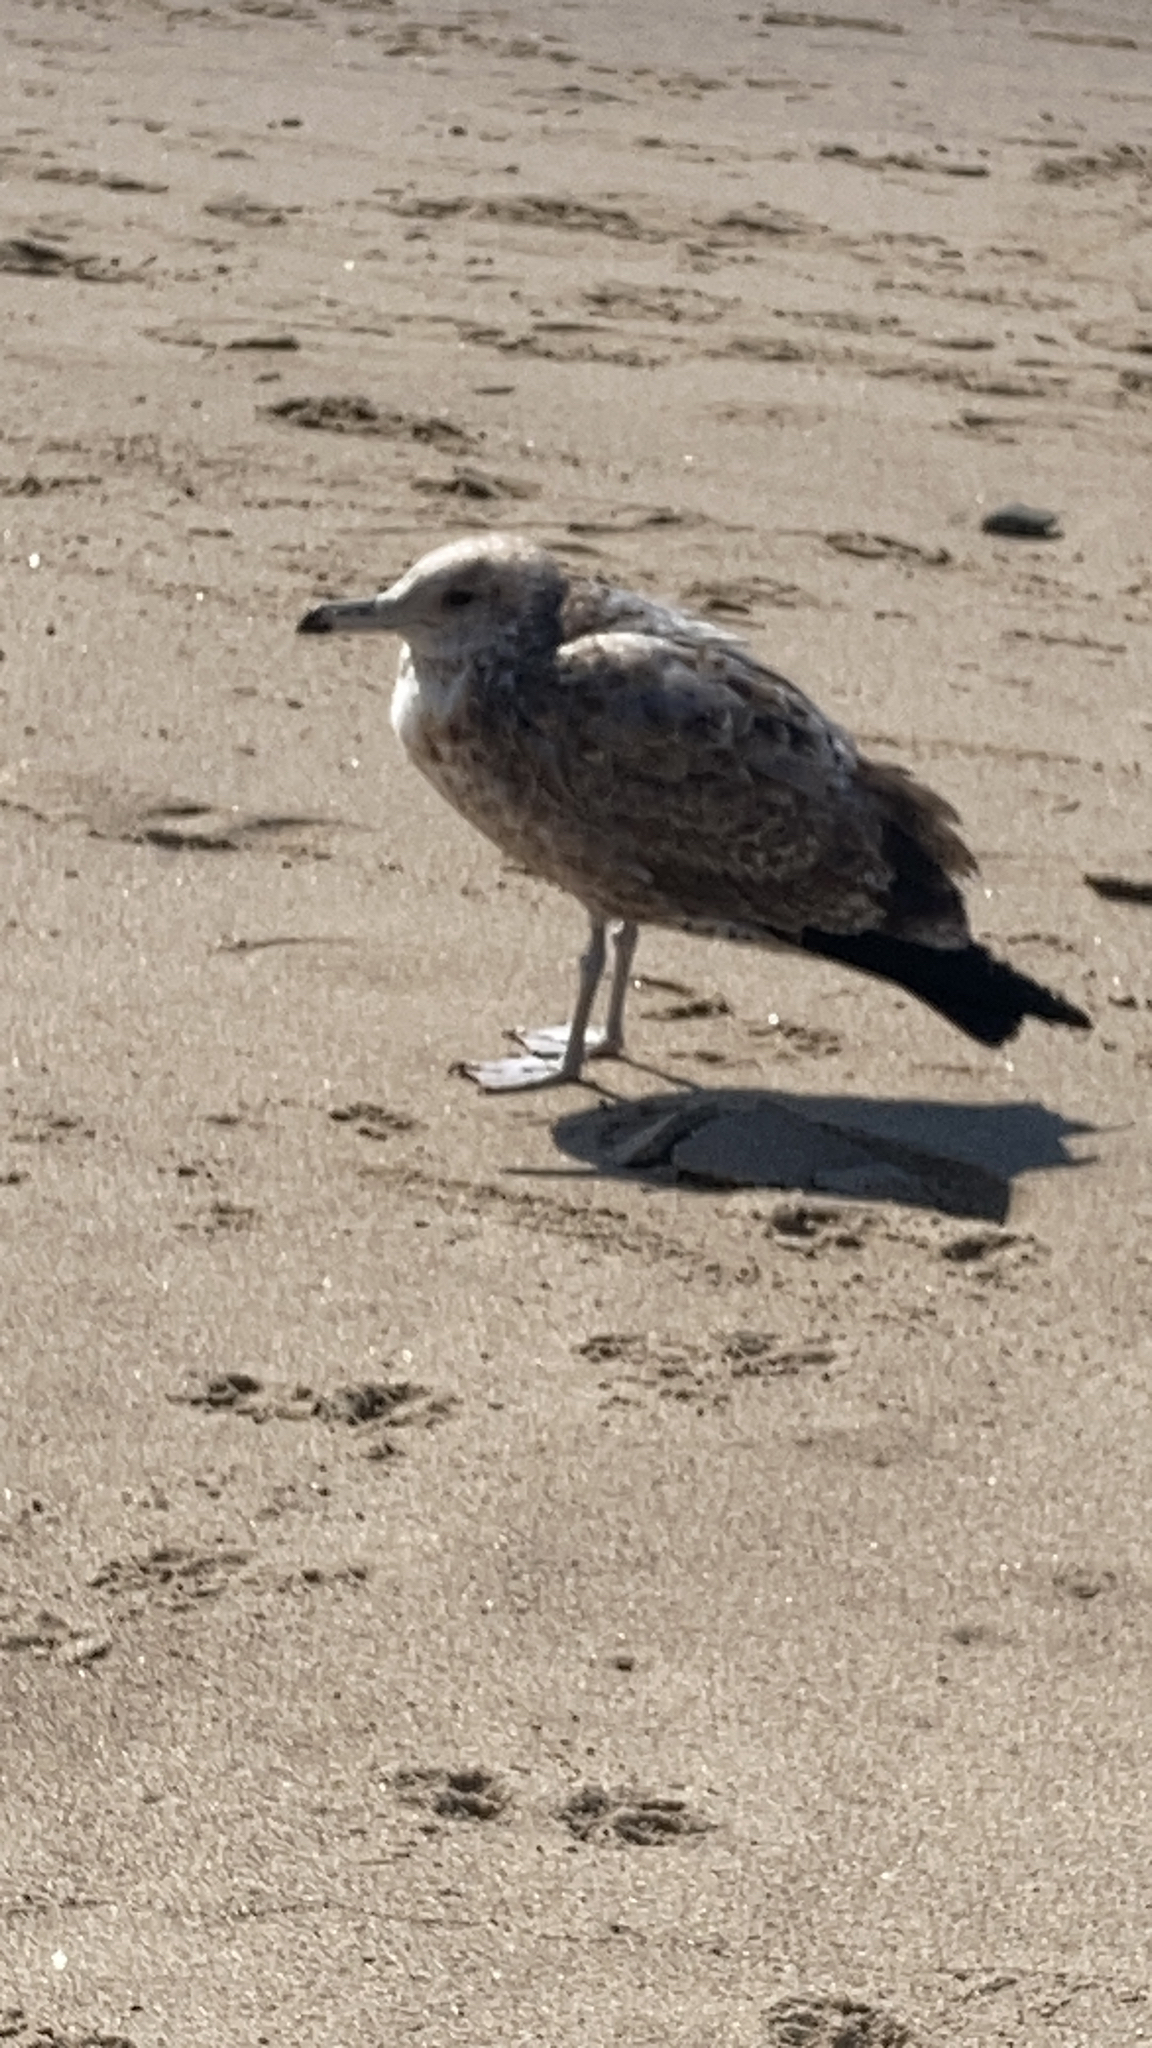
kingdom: Animalia
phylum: Chordata
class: Aves
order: Charadriiformes
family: Laridae
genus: Larus
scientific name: Larus californicus
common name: California gull
